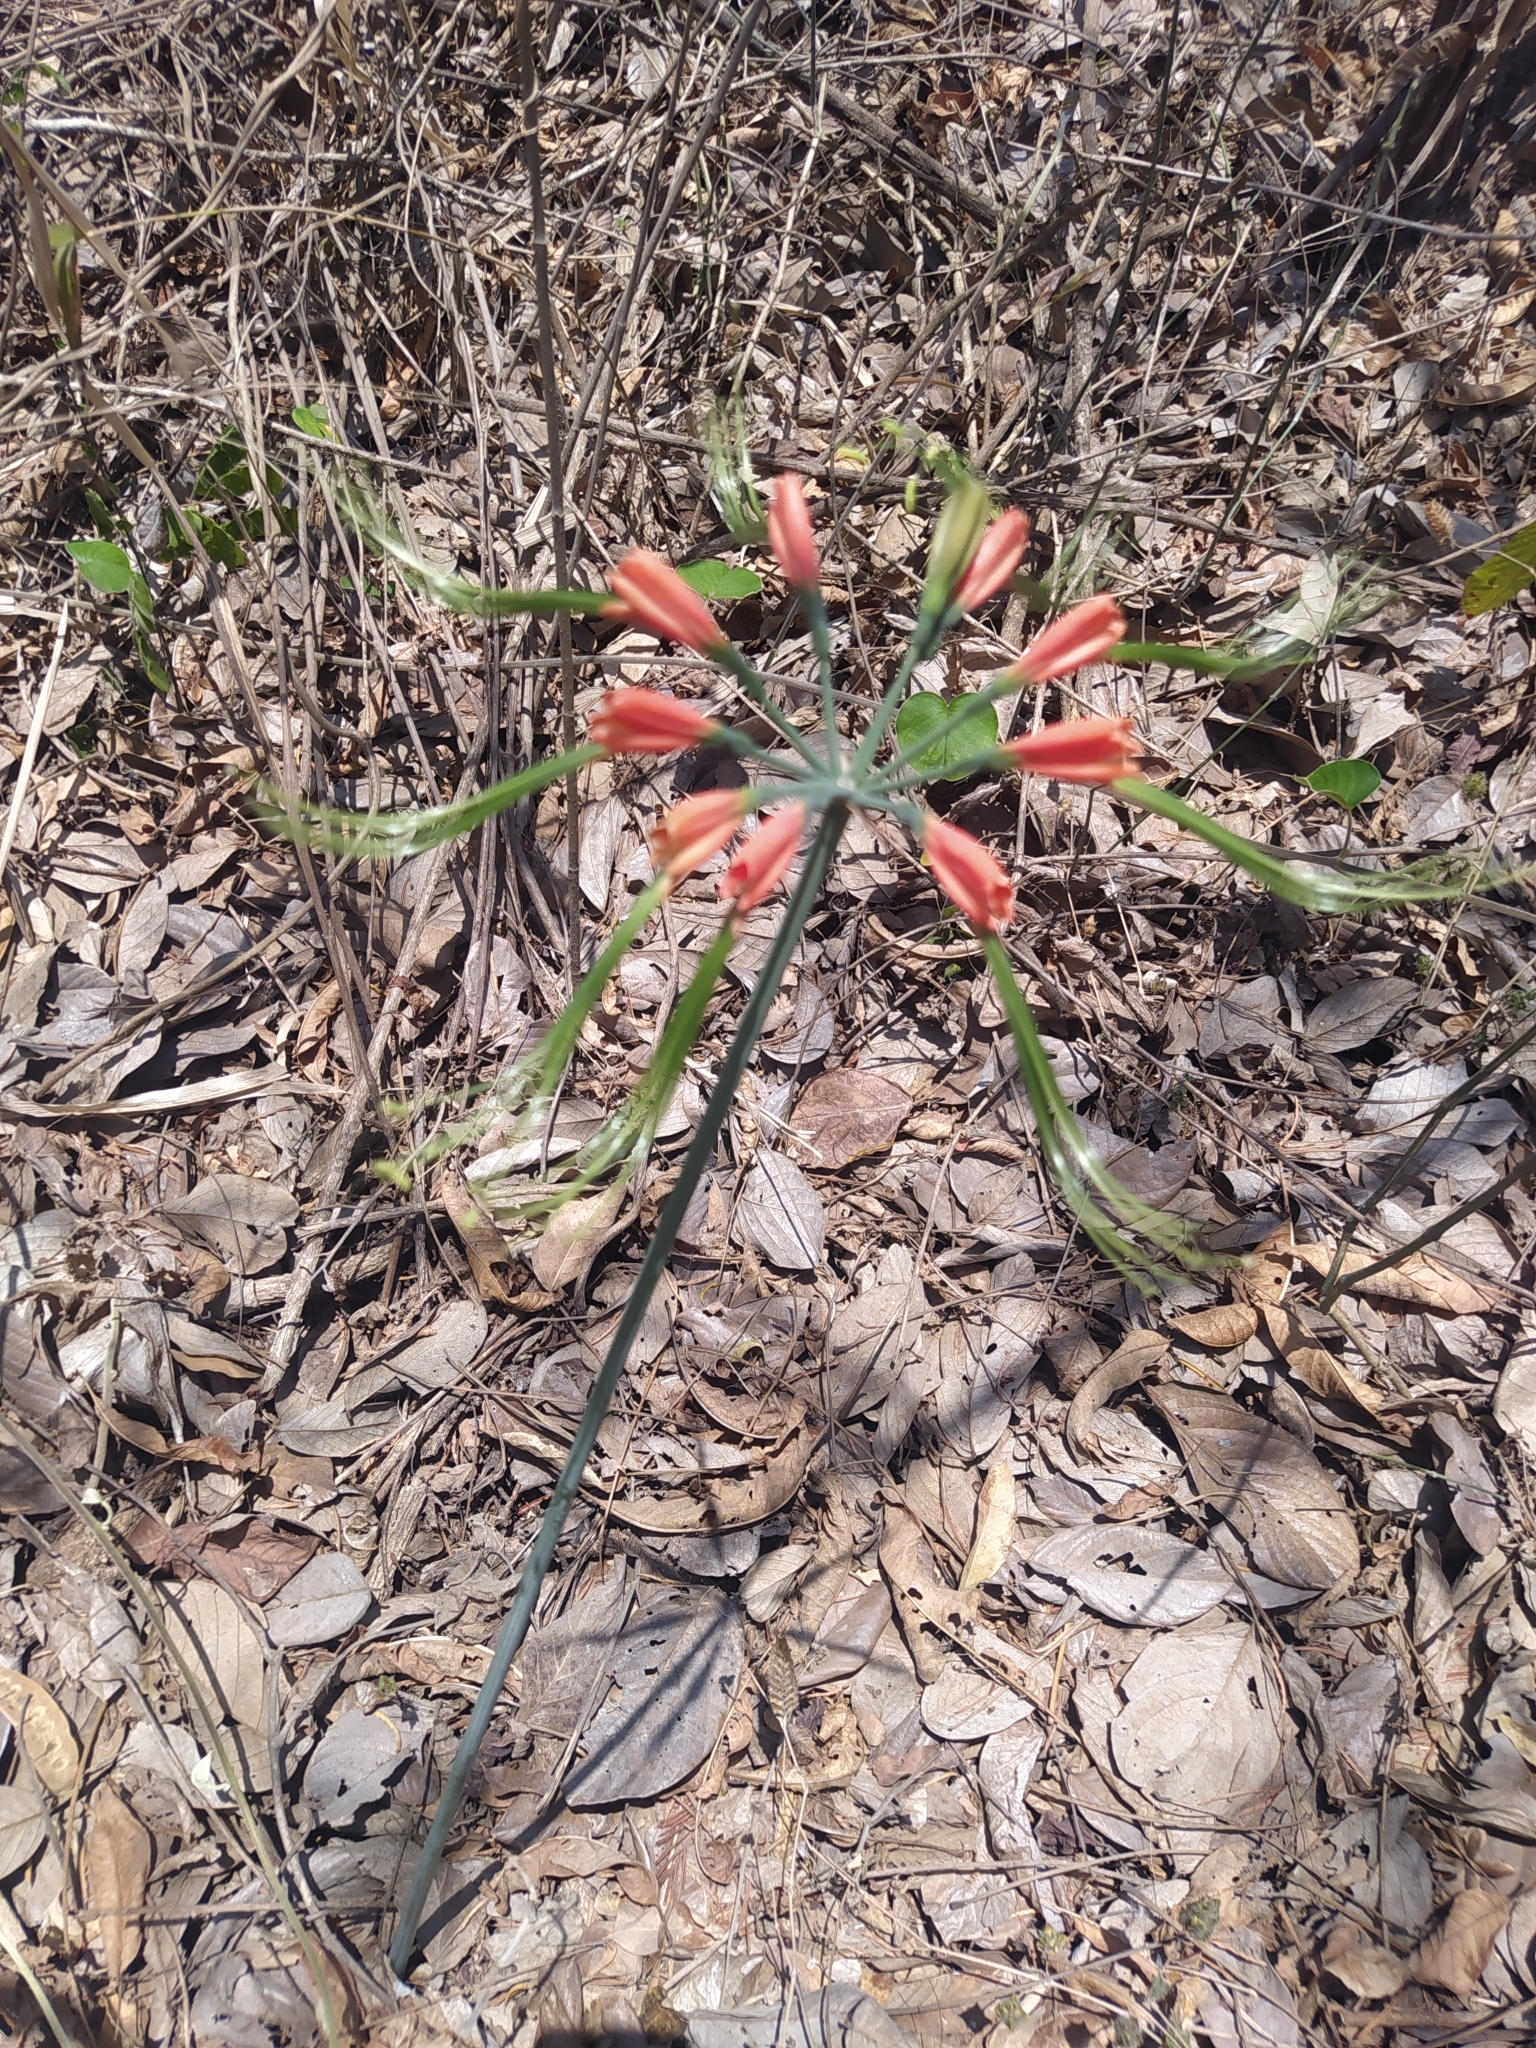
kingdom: Plantae
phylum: Tracheophyta
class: Liliopsida
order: Asparagales
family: Amaryllidaceae
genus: Eucrosia
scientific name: Eucrosia eucrosioides
